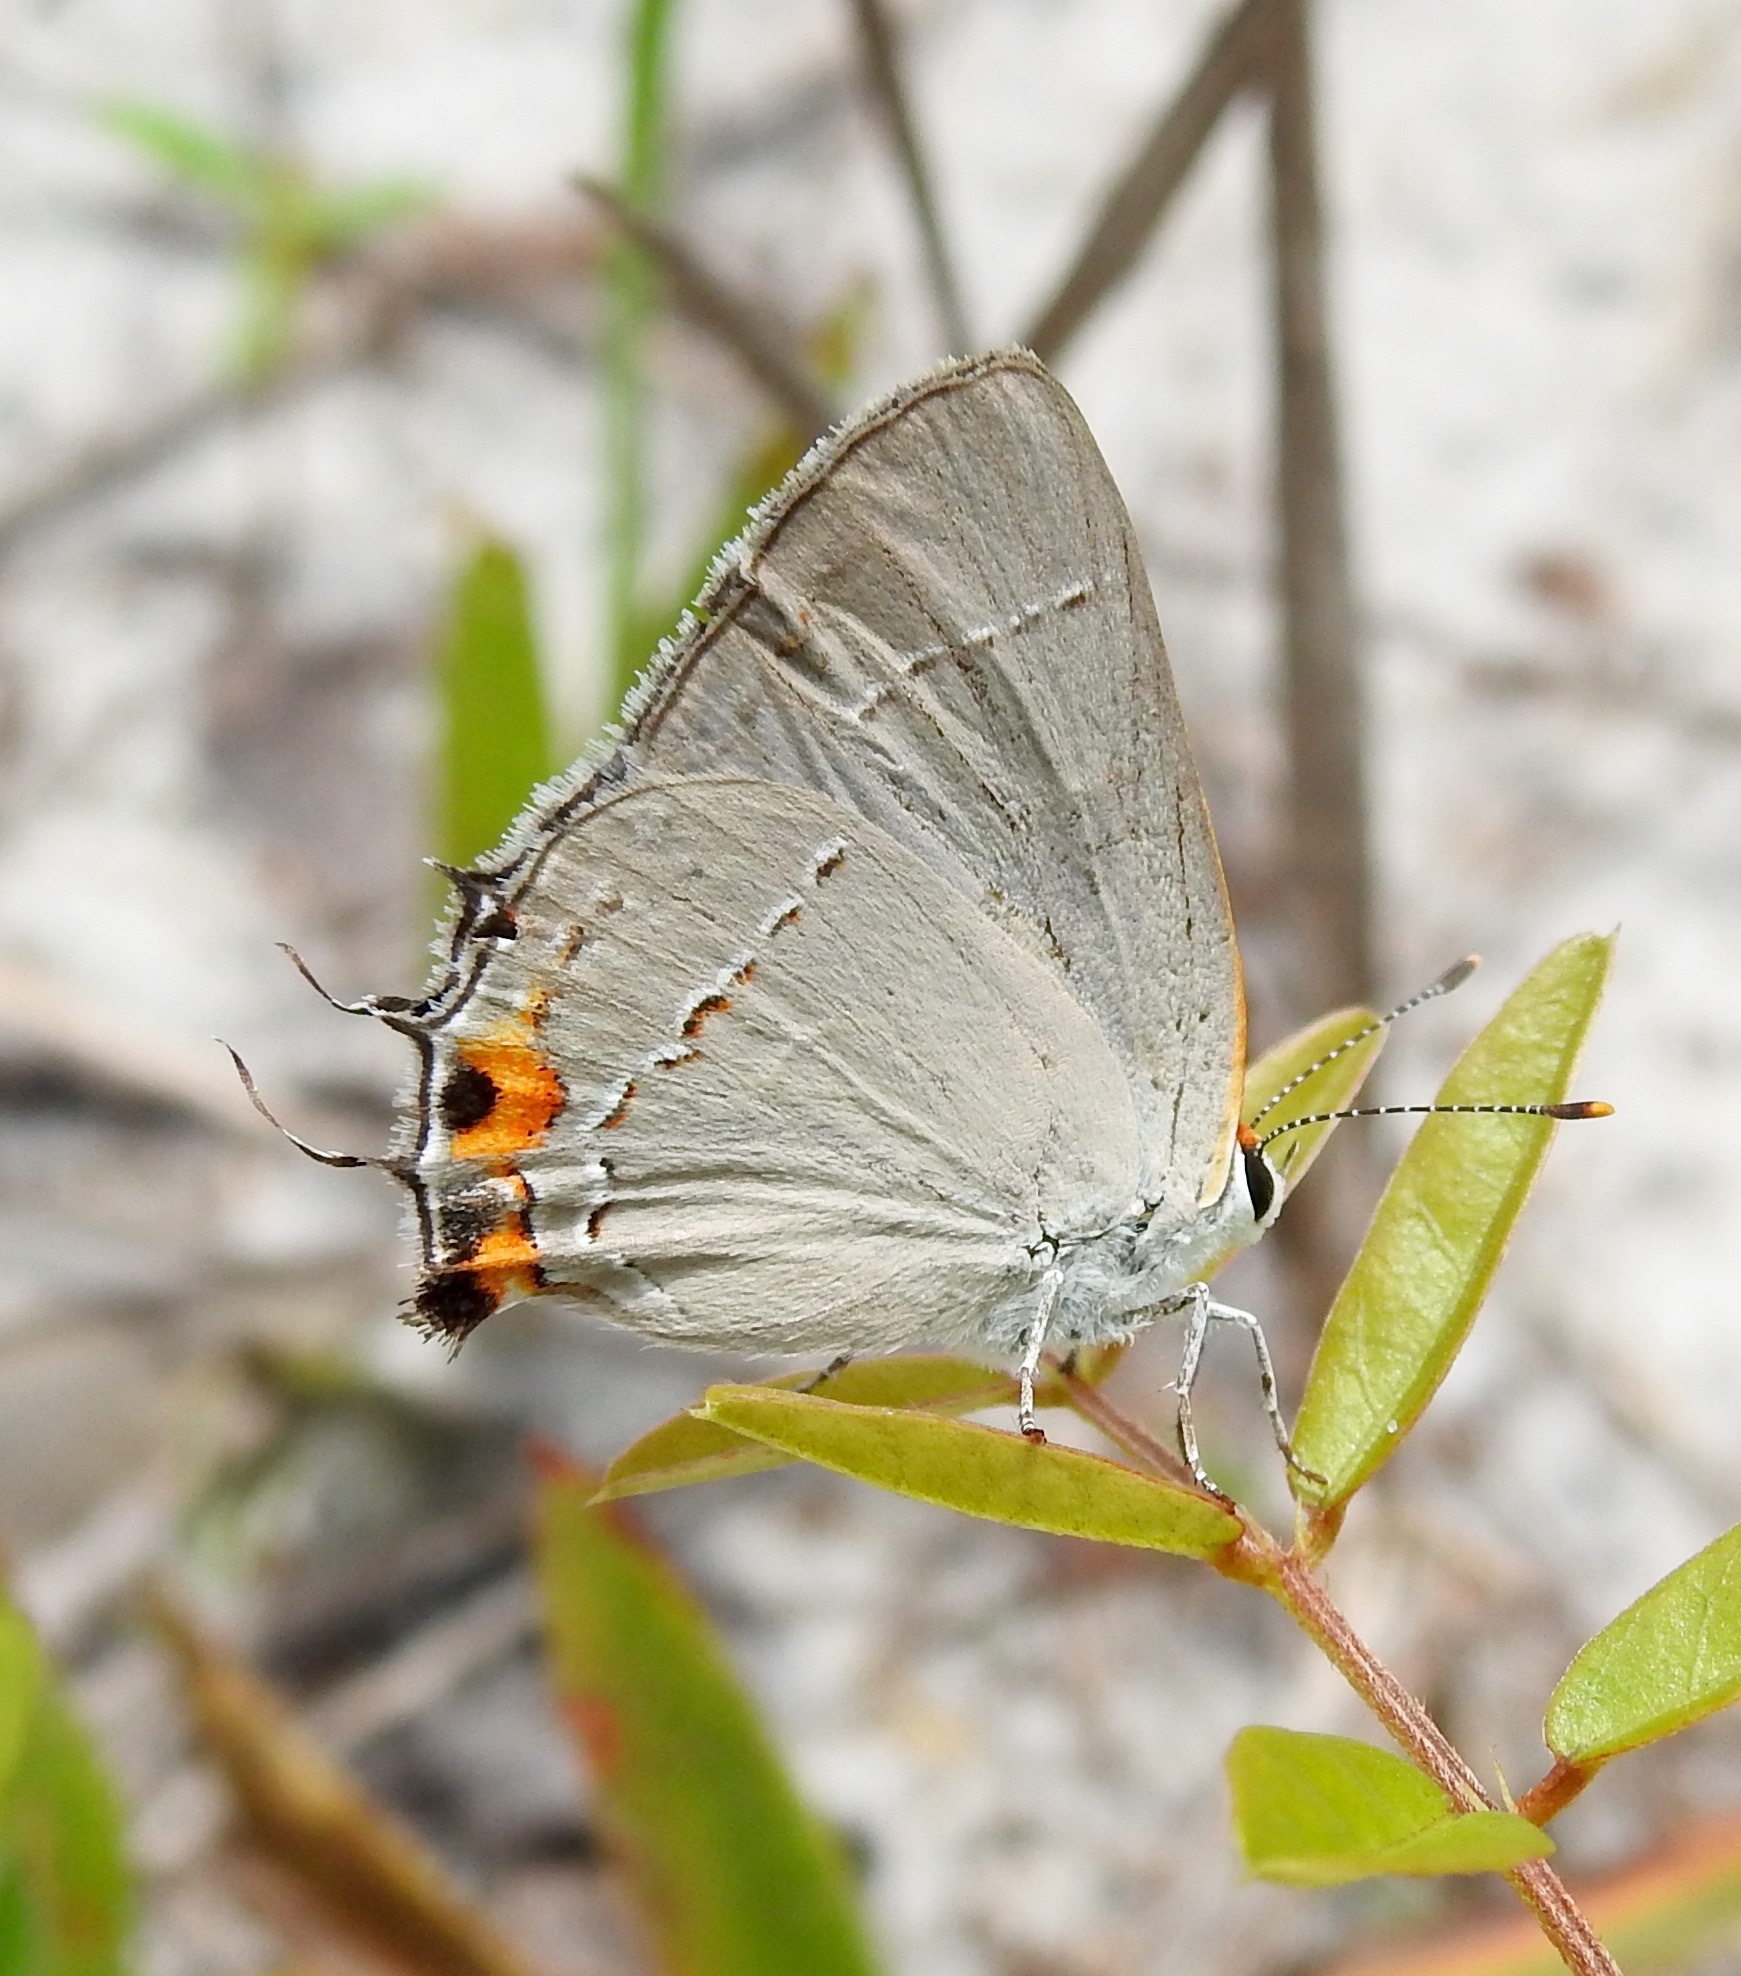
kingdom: Animalia
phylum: Arthropoda
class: Insecta
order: Lepidoptera
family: Lycaenidae
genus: Strymon
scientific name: Strymon melinus
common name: Gray hairstreak
